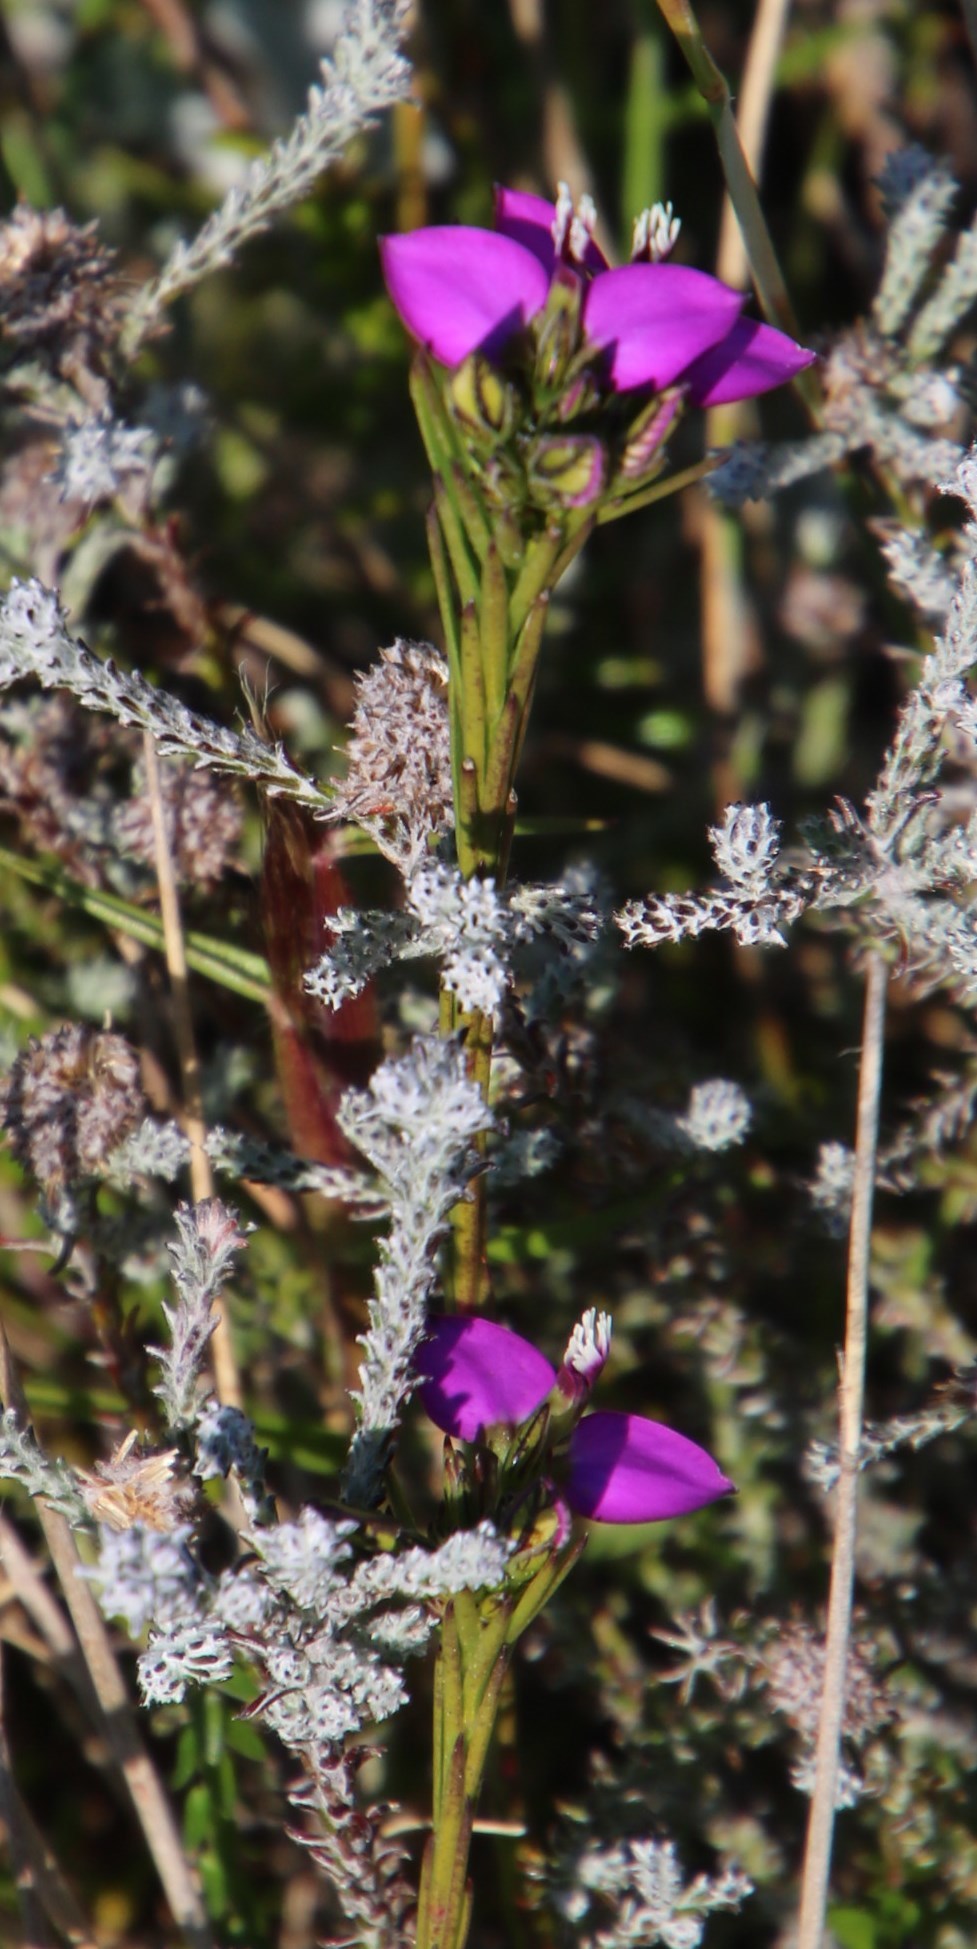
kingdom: Plantae
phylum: Tracheophyta
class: Magnoliopsida
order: Fabales
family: Polygalaceae
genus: Polygala
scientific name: Polygala recognita
